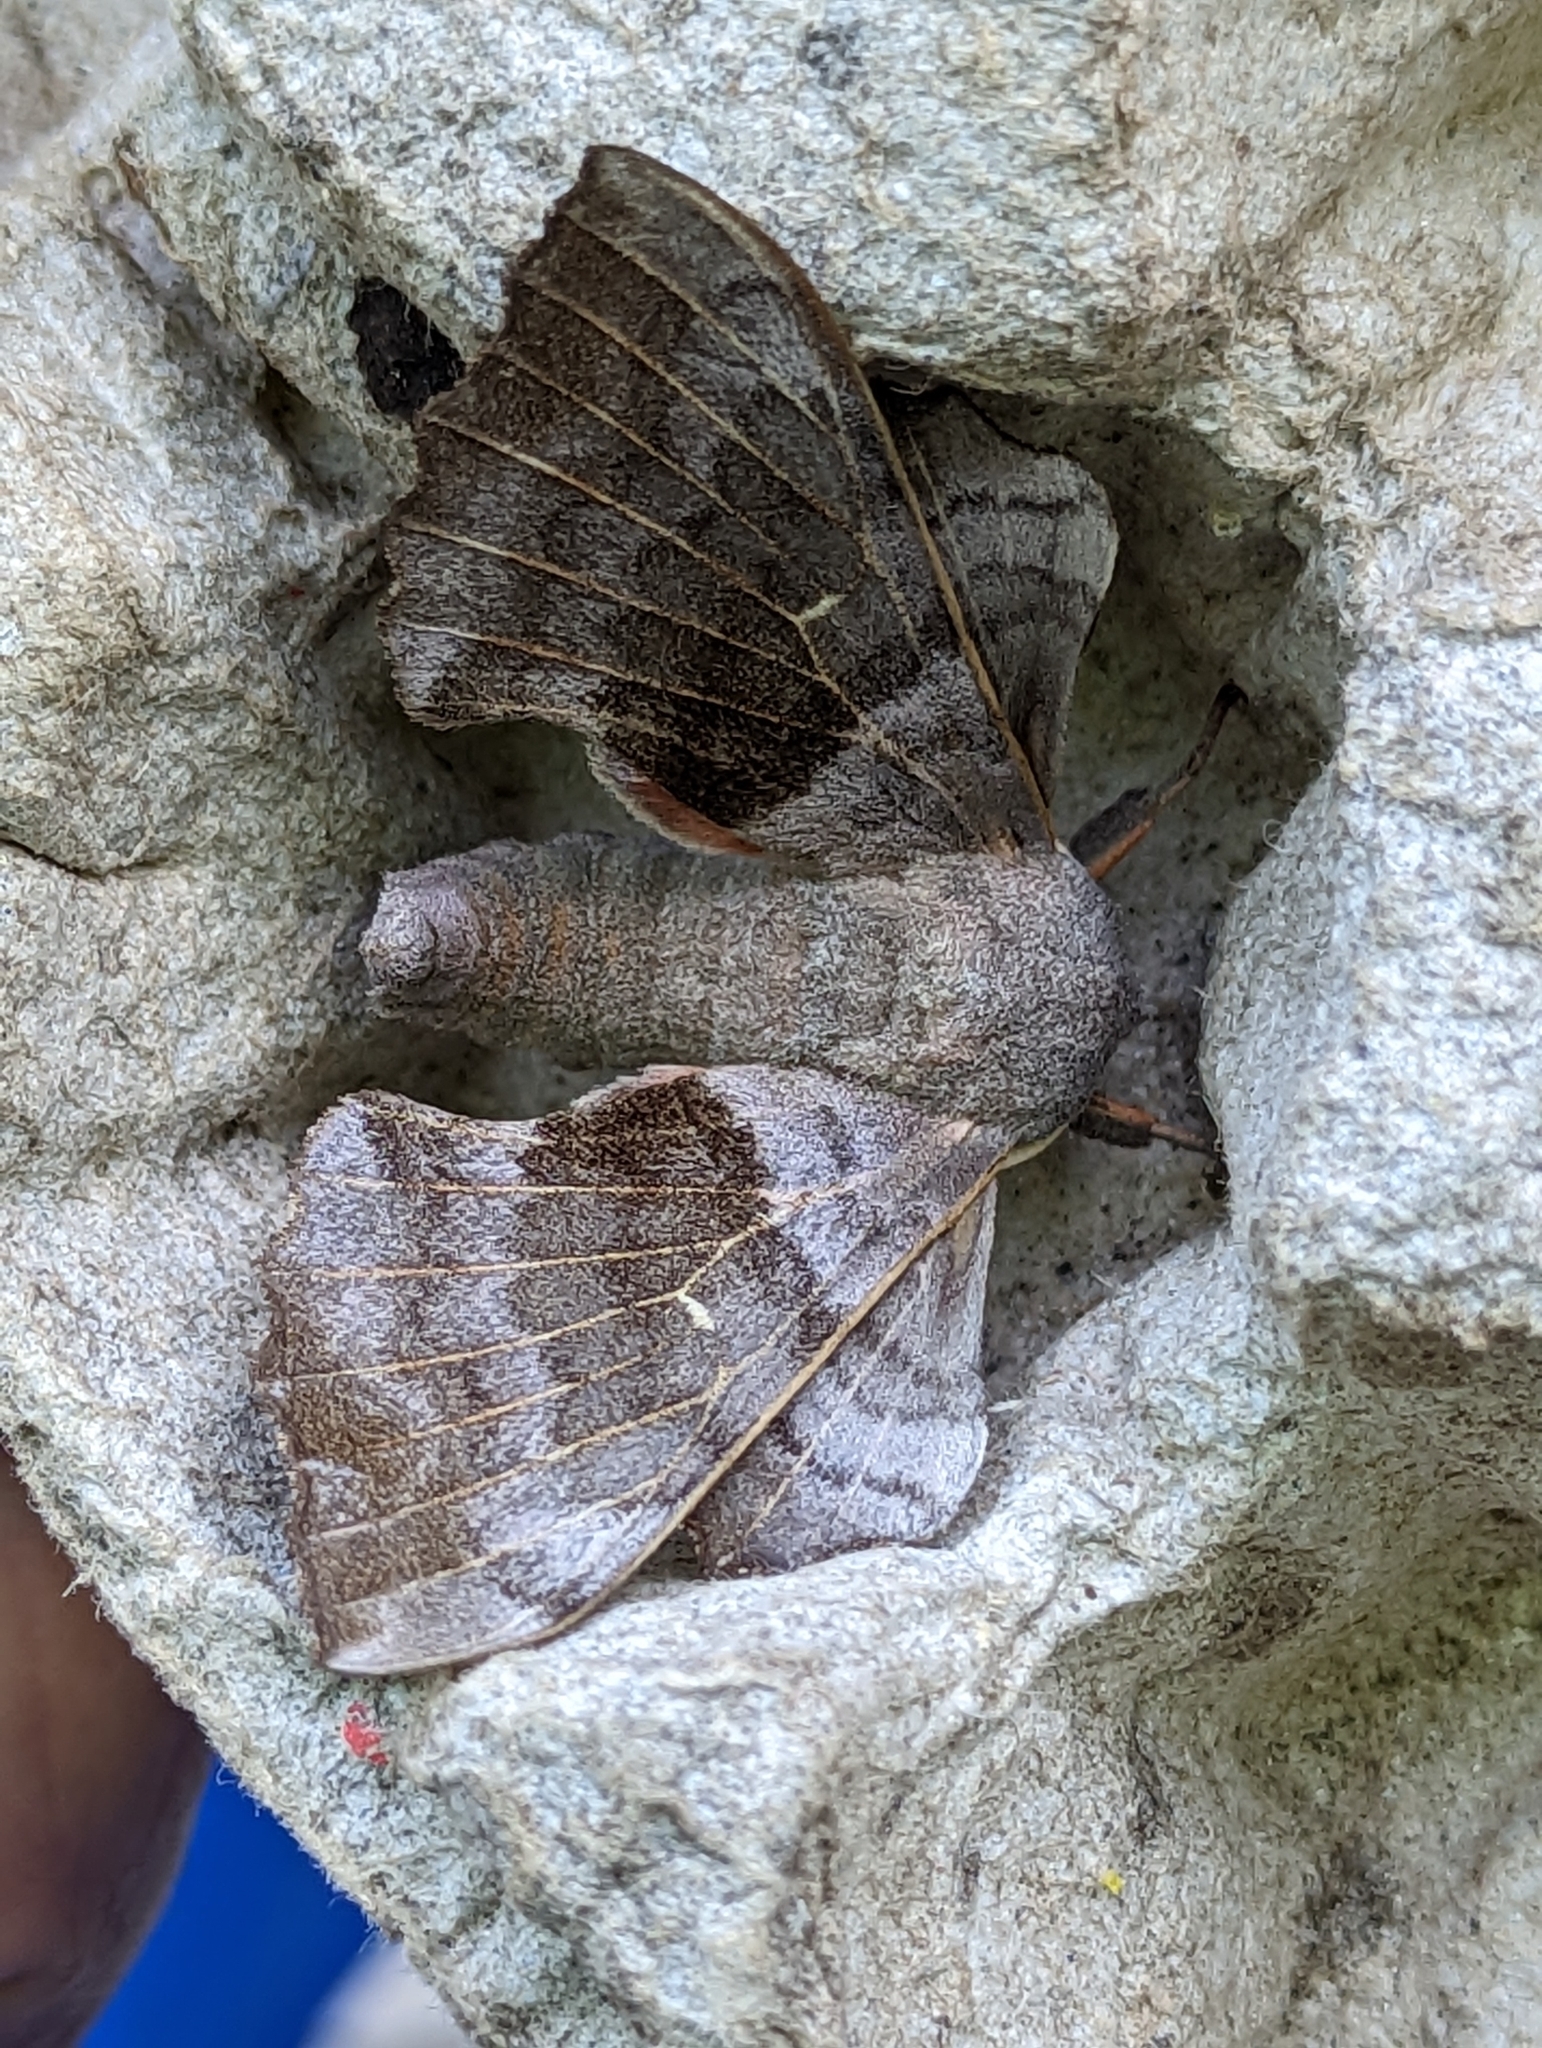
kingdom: Animalia
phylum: Arthropoda
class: Insecta
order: Lepidoptera
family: Sphingidae
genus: Laothoe
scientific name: Laothoe populi
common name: Poplar hawk-moth
